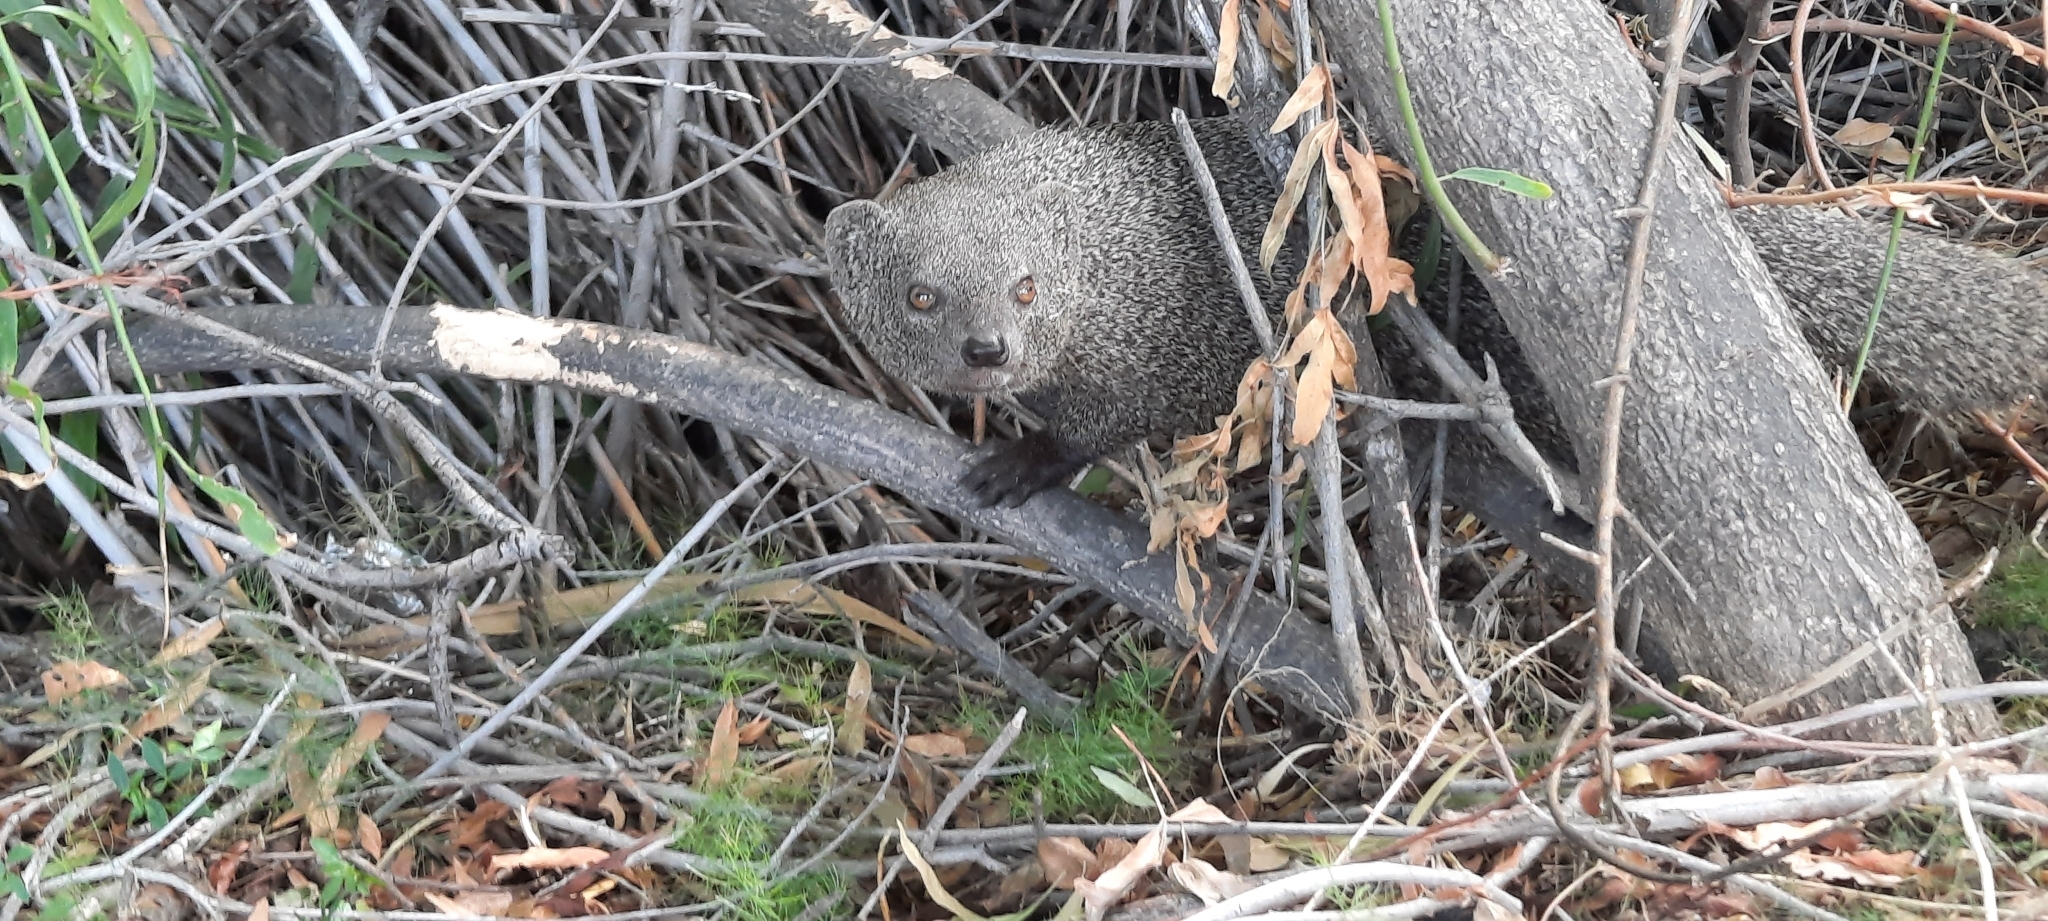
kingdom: Animalia
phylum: Chordata
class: Mammalia
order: Carnivora
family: Herpestidae
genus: Galerella
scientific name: Galerella pulverulenta
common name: Cape gray mongoose
